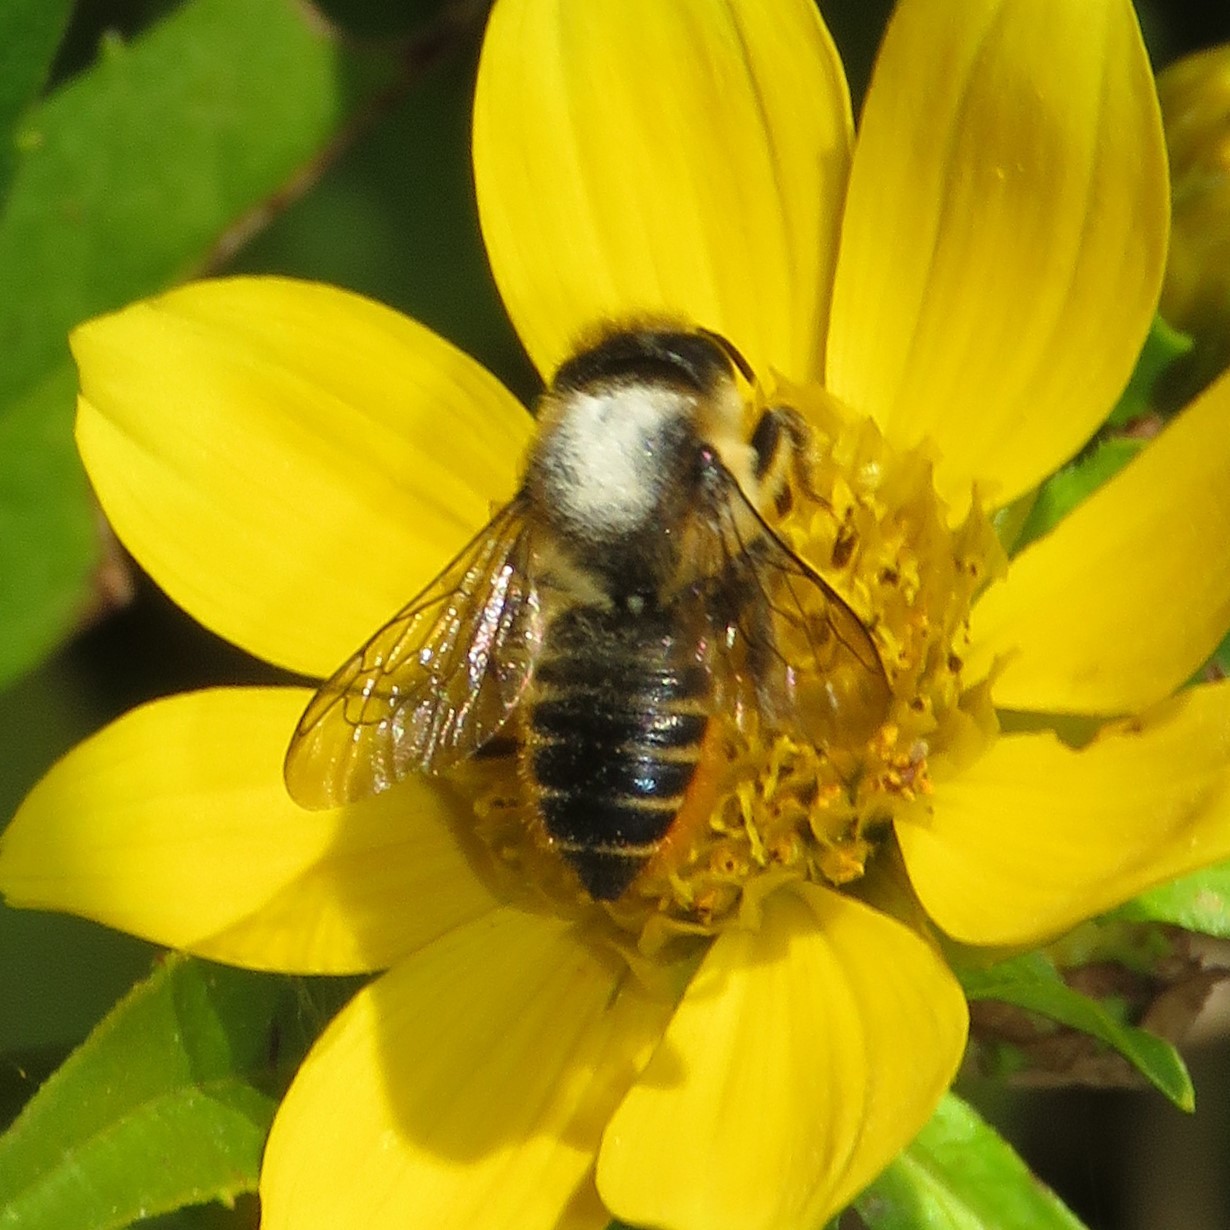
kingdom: Animalia
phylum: Arthropoda
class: Insecta
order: Hymenoptera
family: Megachilidae
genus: Megachile
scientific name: Megachile centuncularis
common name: Patchwork leafcutter bee
